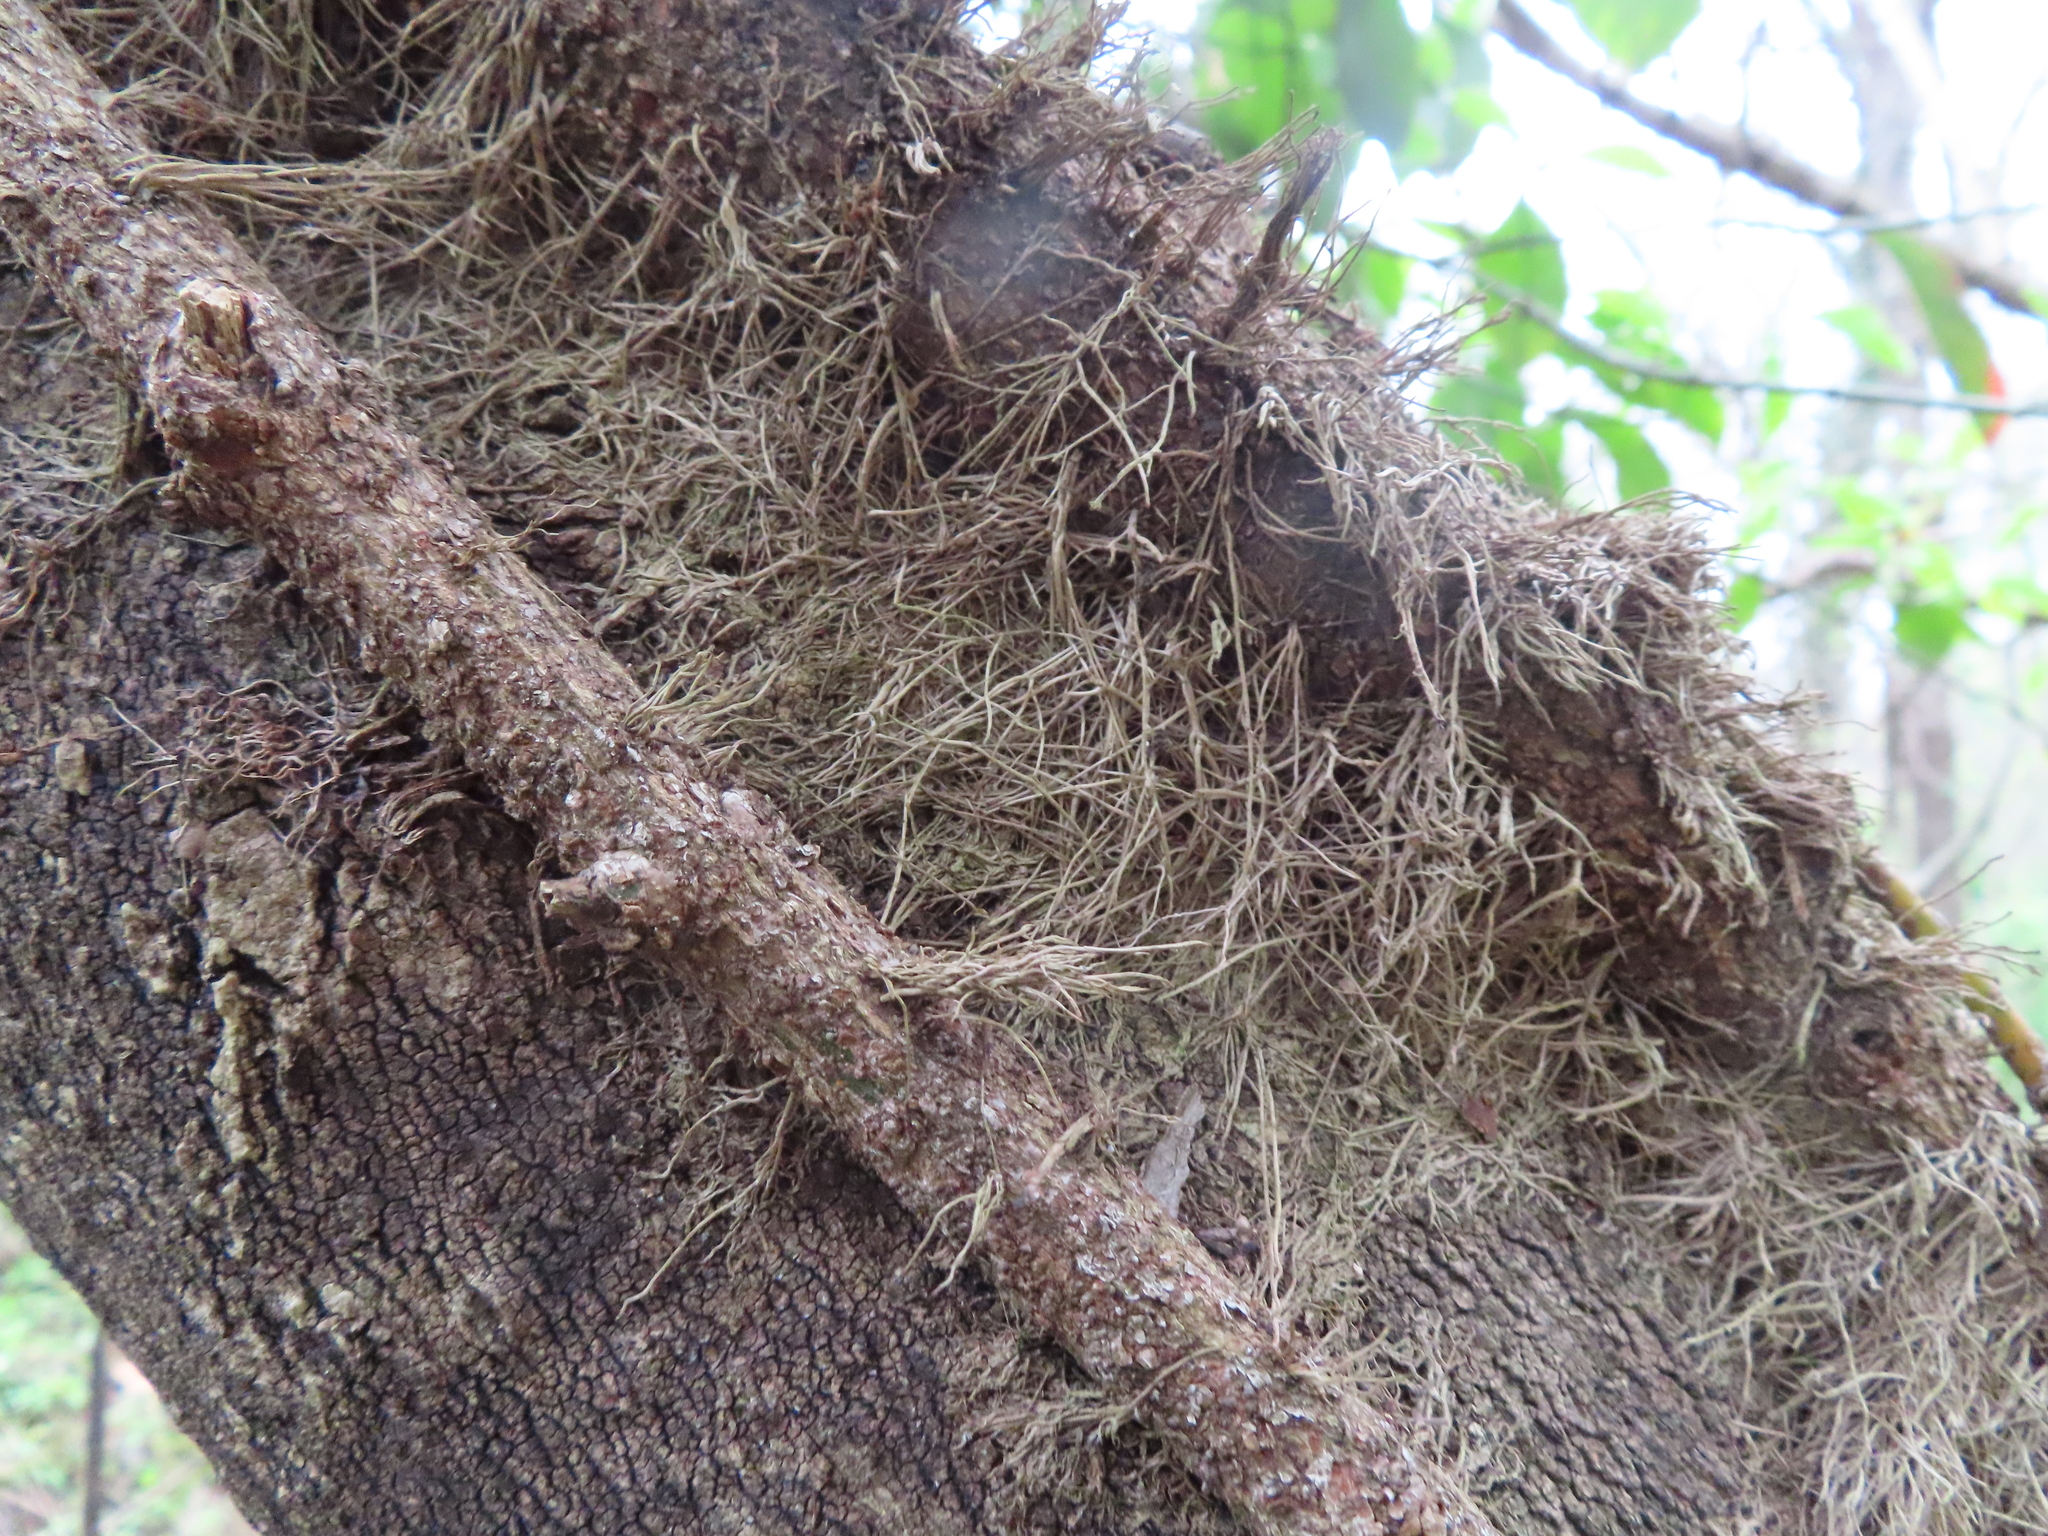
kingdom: Plantae
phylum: Tracheophyta
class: Magnoliopsida
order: Sapindales
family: Anacardiaceae
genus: Toxicodendron
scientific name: Toxicodendron radicans
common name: Poison ivy
